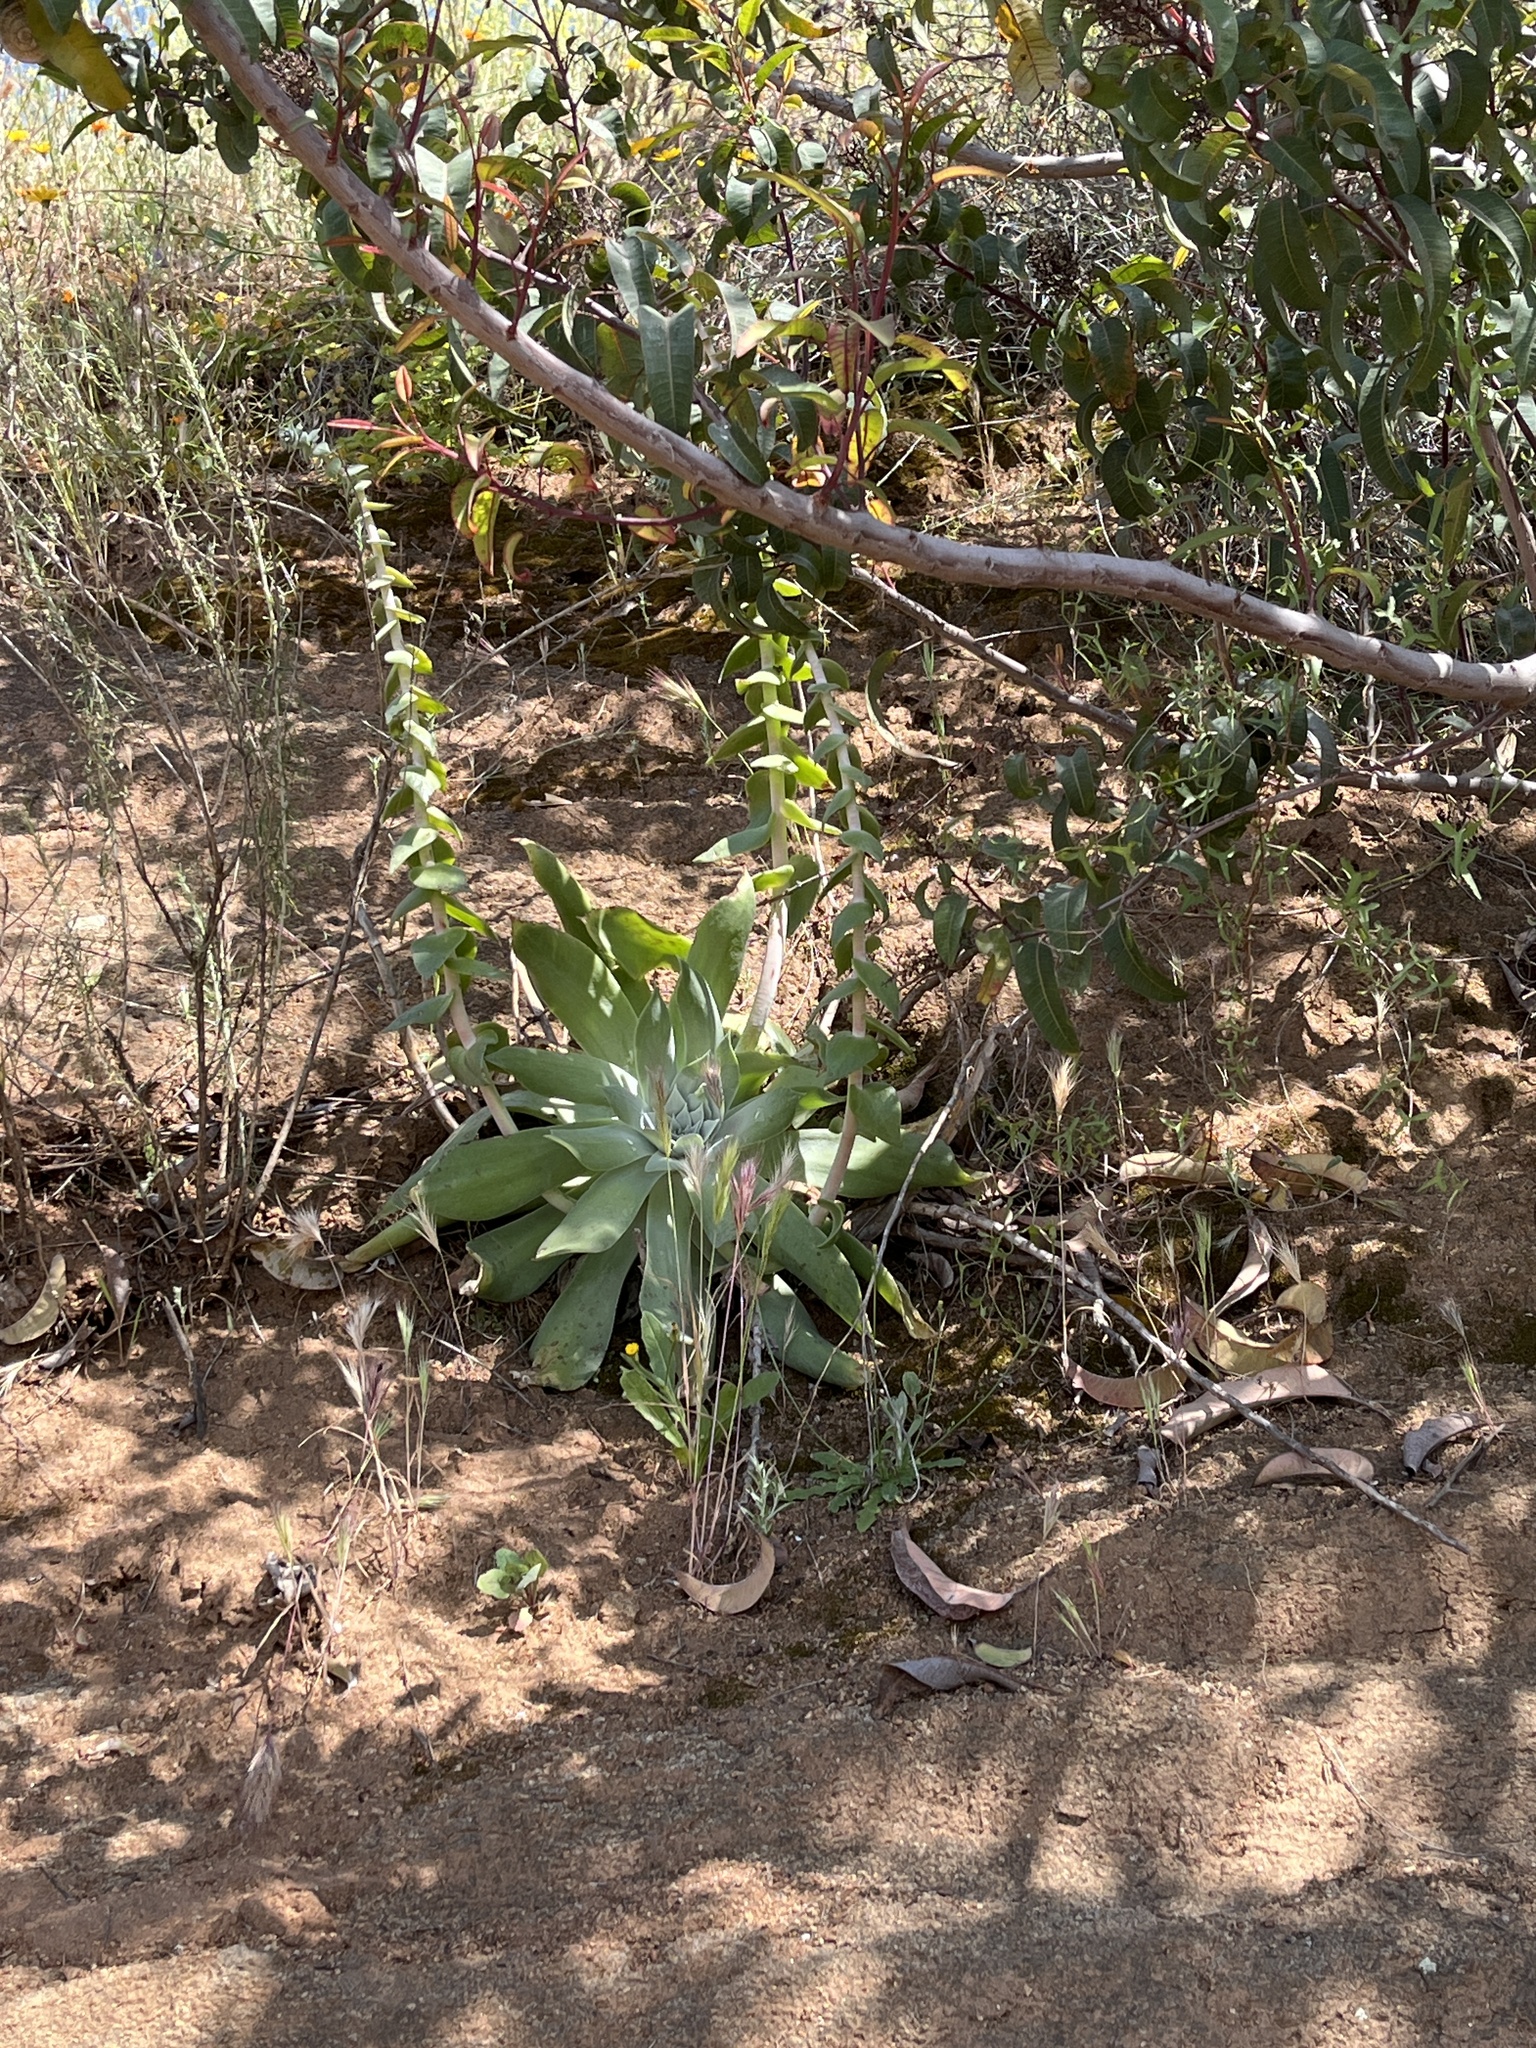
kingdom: Plantae
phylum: Tracheophyta
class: Magnoliopsida
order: Saxifragales
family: Crassulaceae
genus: Dudleya
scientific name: Dudleya pulverulenta
